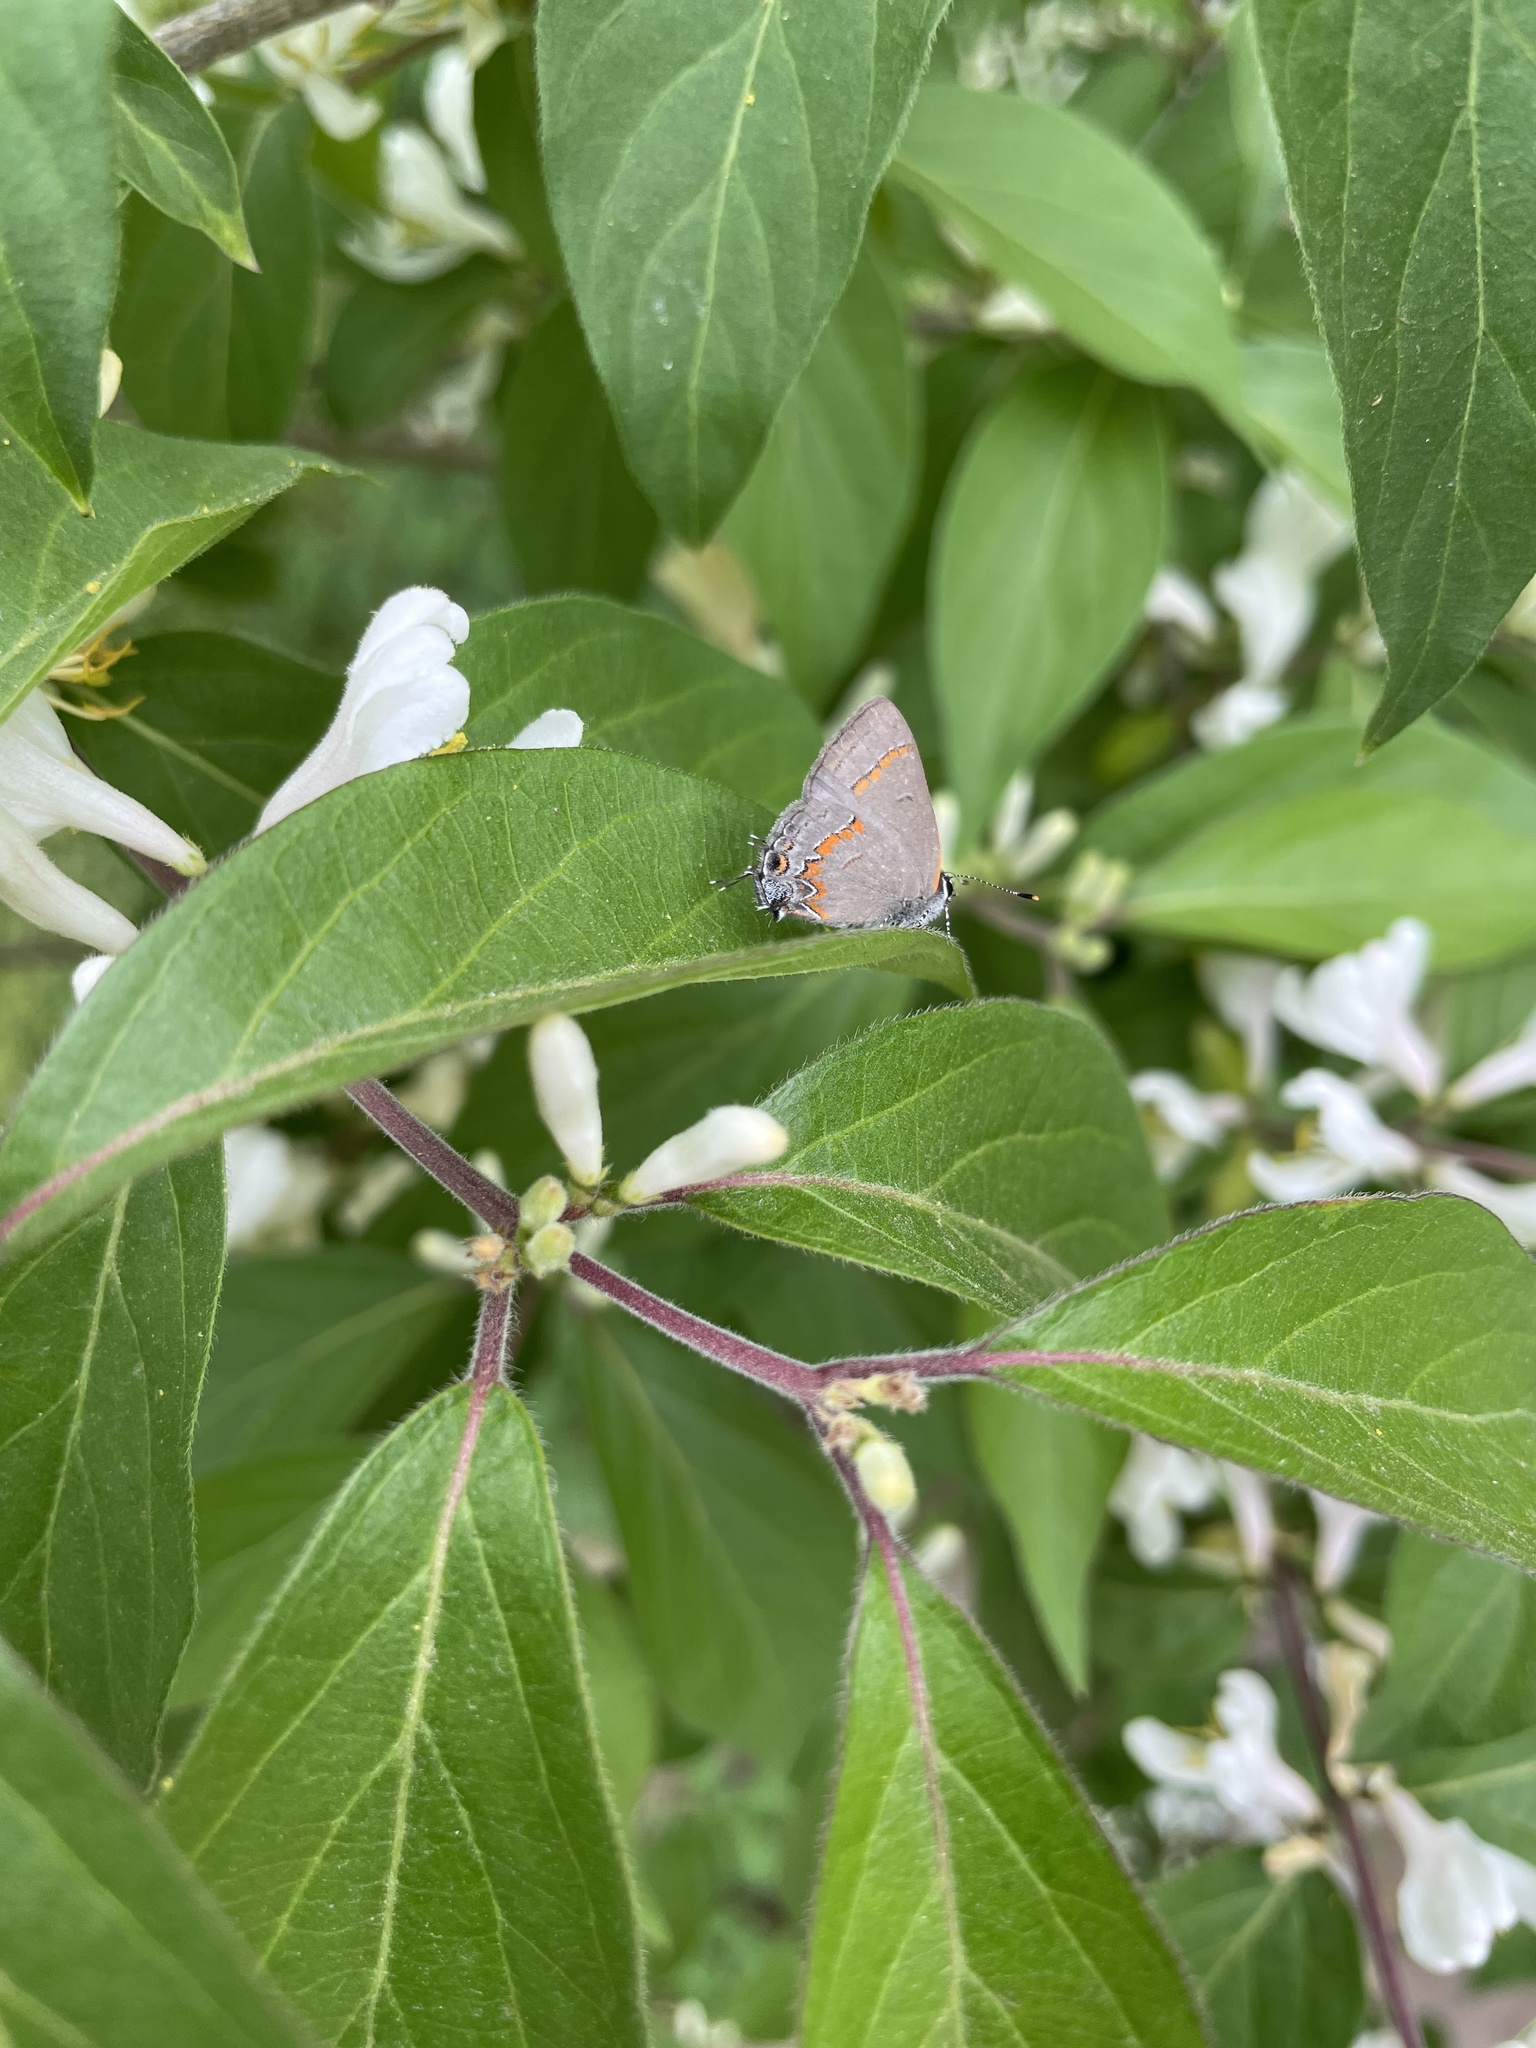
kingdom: Animalia
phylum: Arthropoda
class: Insecta
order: Lepidoptera
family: Lycaenidae
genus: Calycopis
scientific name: Calycopis cecrops
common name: Red-banded hairstreak
